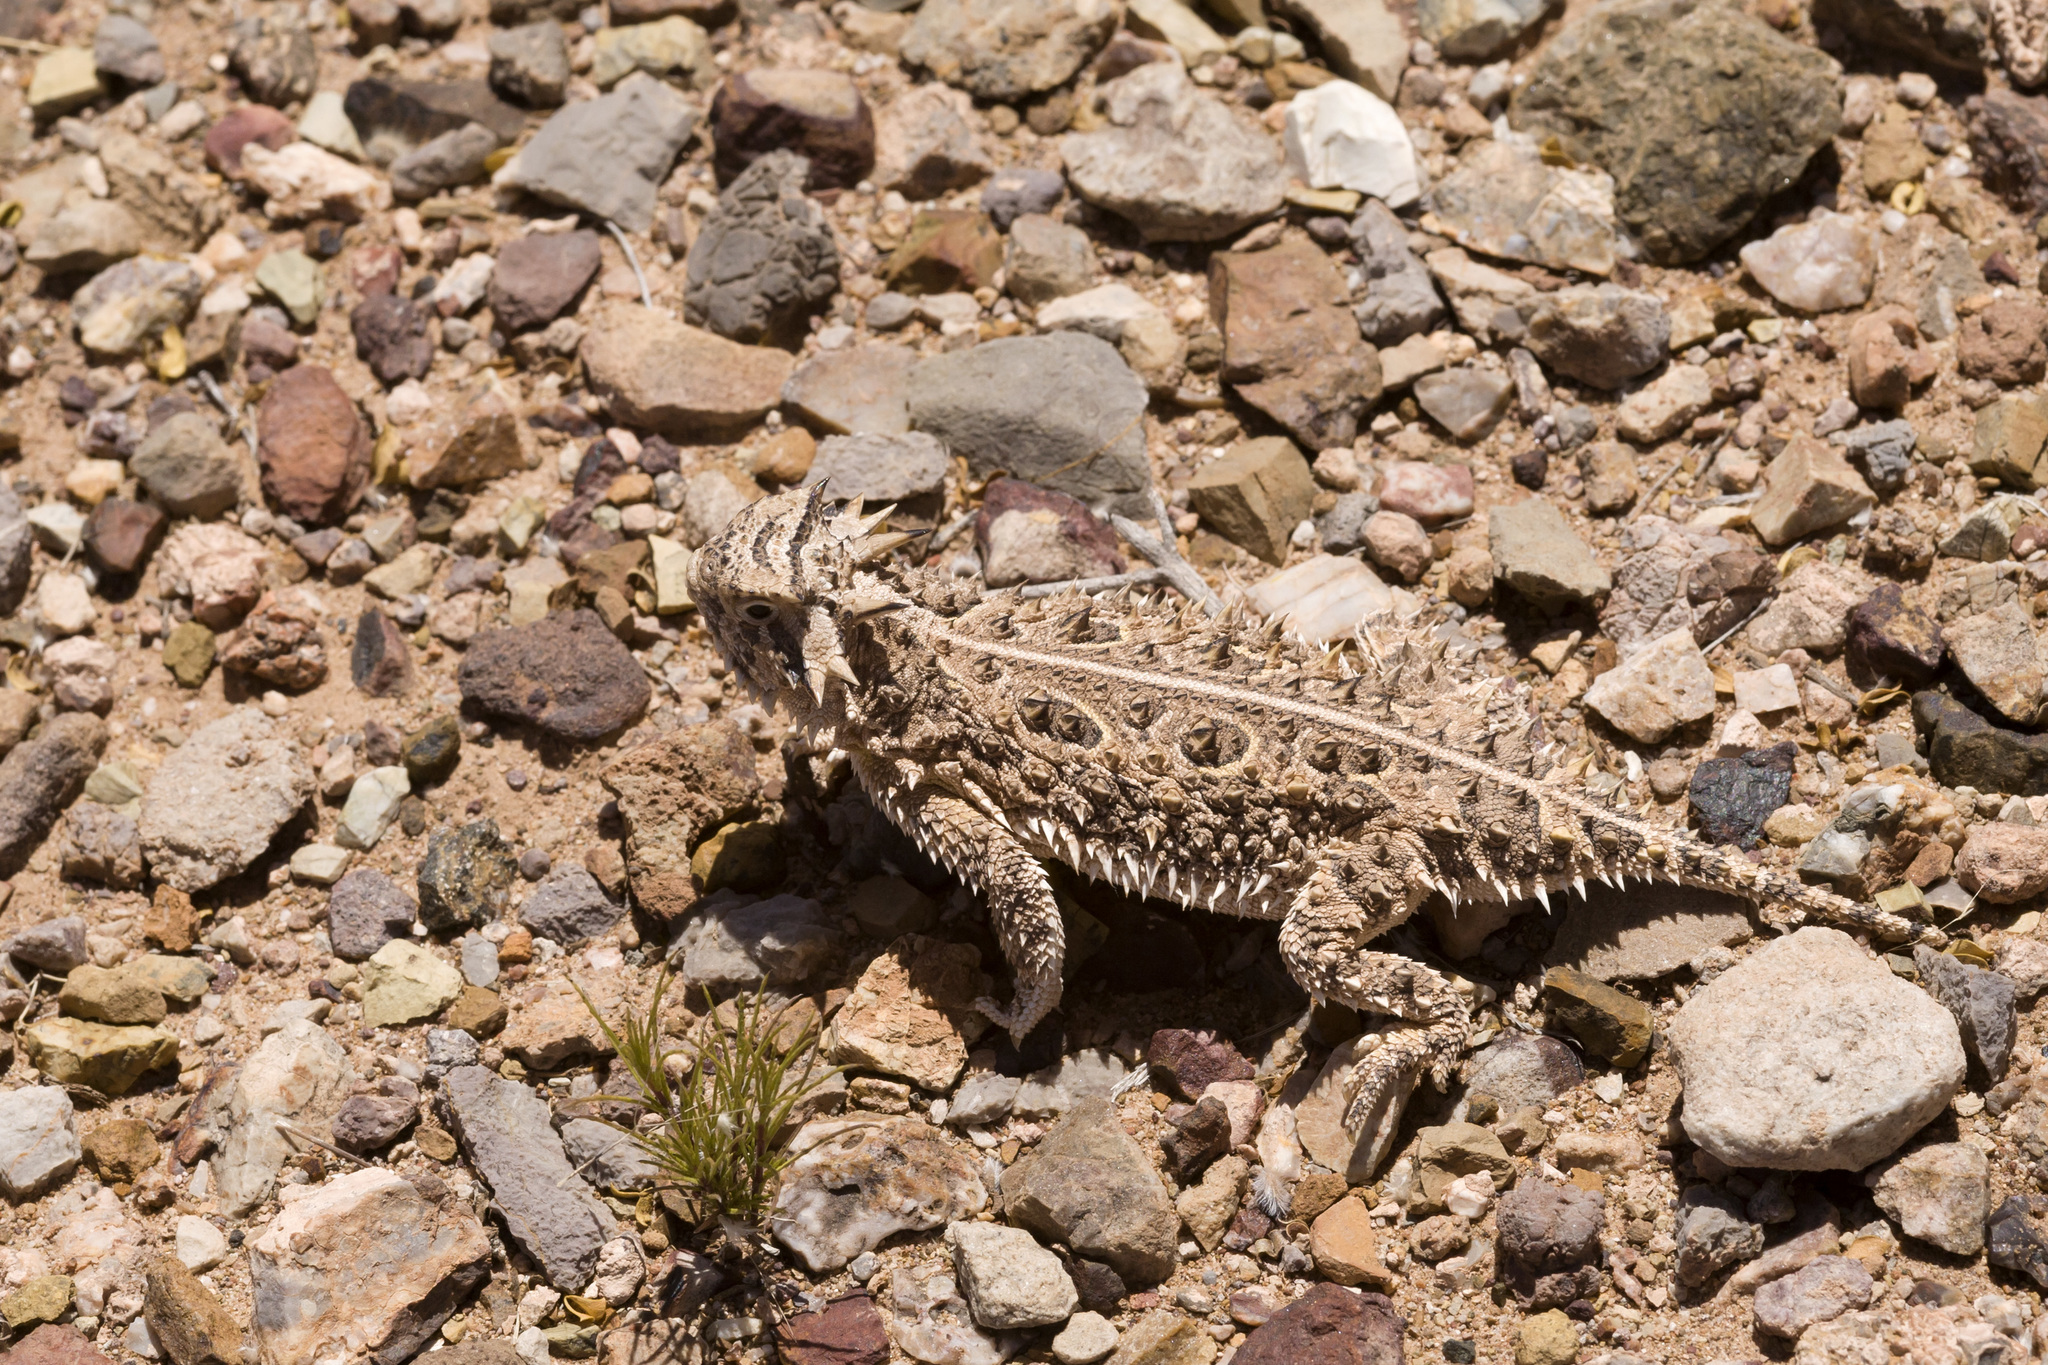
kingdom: Animalia
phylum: Chordata
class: Squamata
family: Phrynosomatidae
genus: Phrynosoma
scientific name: Phrynosoma cornutum
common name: Texas horned lizard
